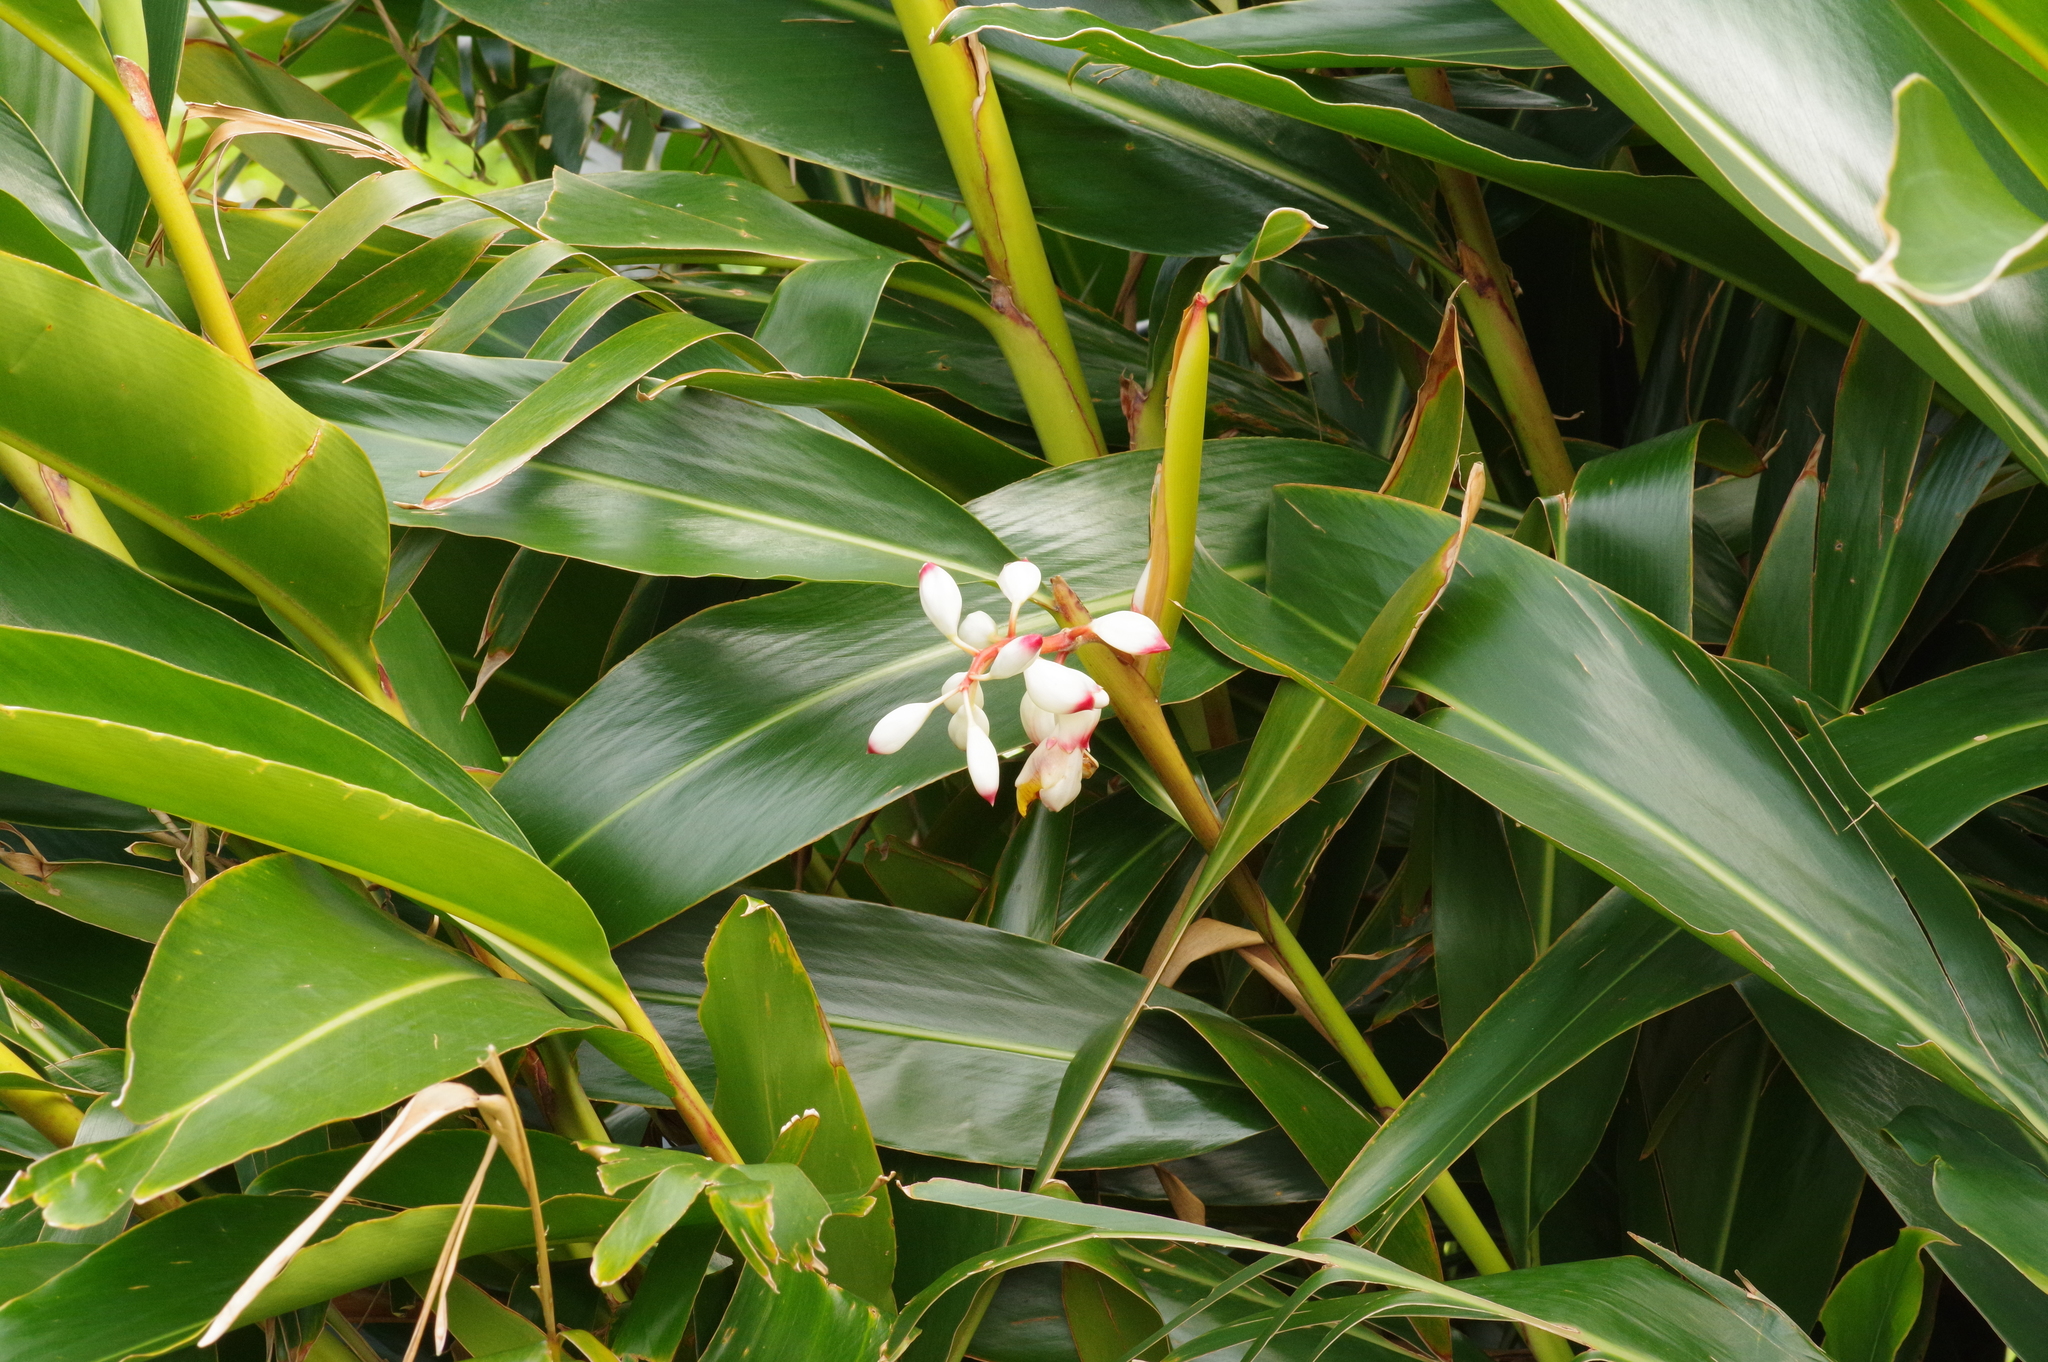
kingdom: Plantae
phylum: Tracheophyta
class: Liliopsida
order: Zingiberales
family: Zingiberaceae
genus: Alpinia
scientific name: Alpinia zerumbet
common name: Shellplant
